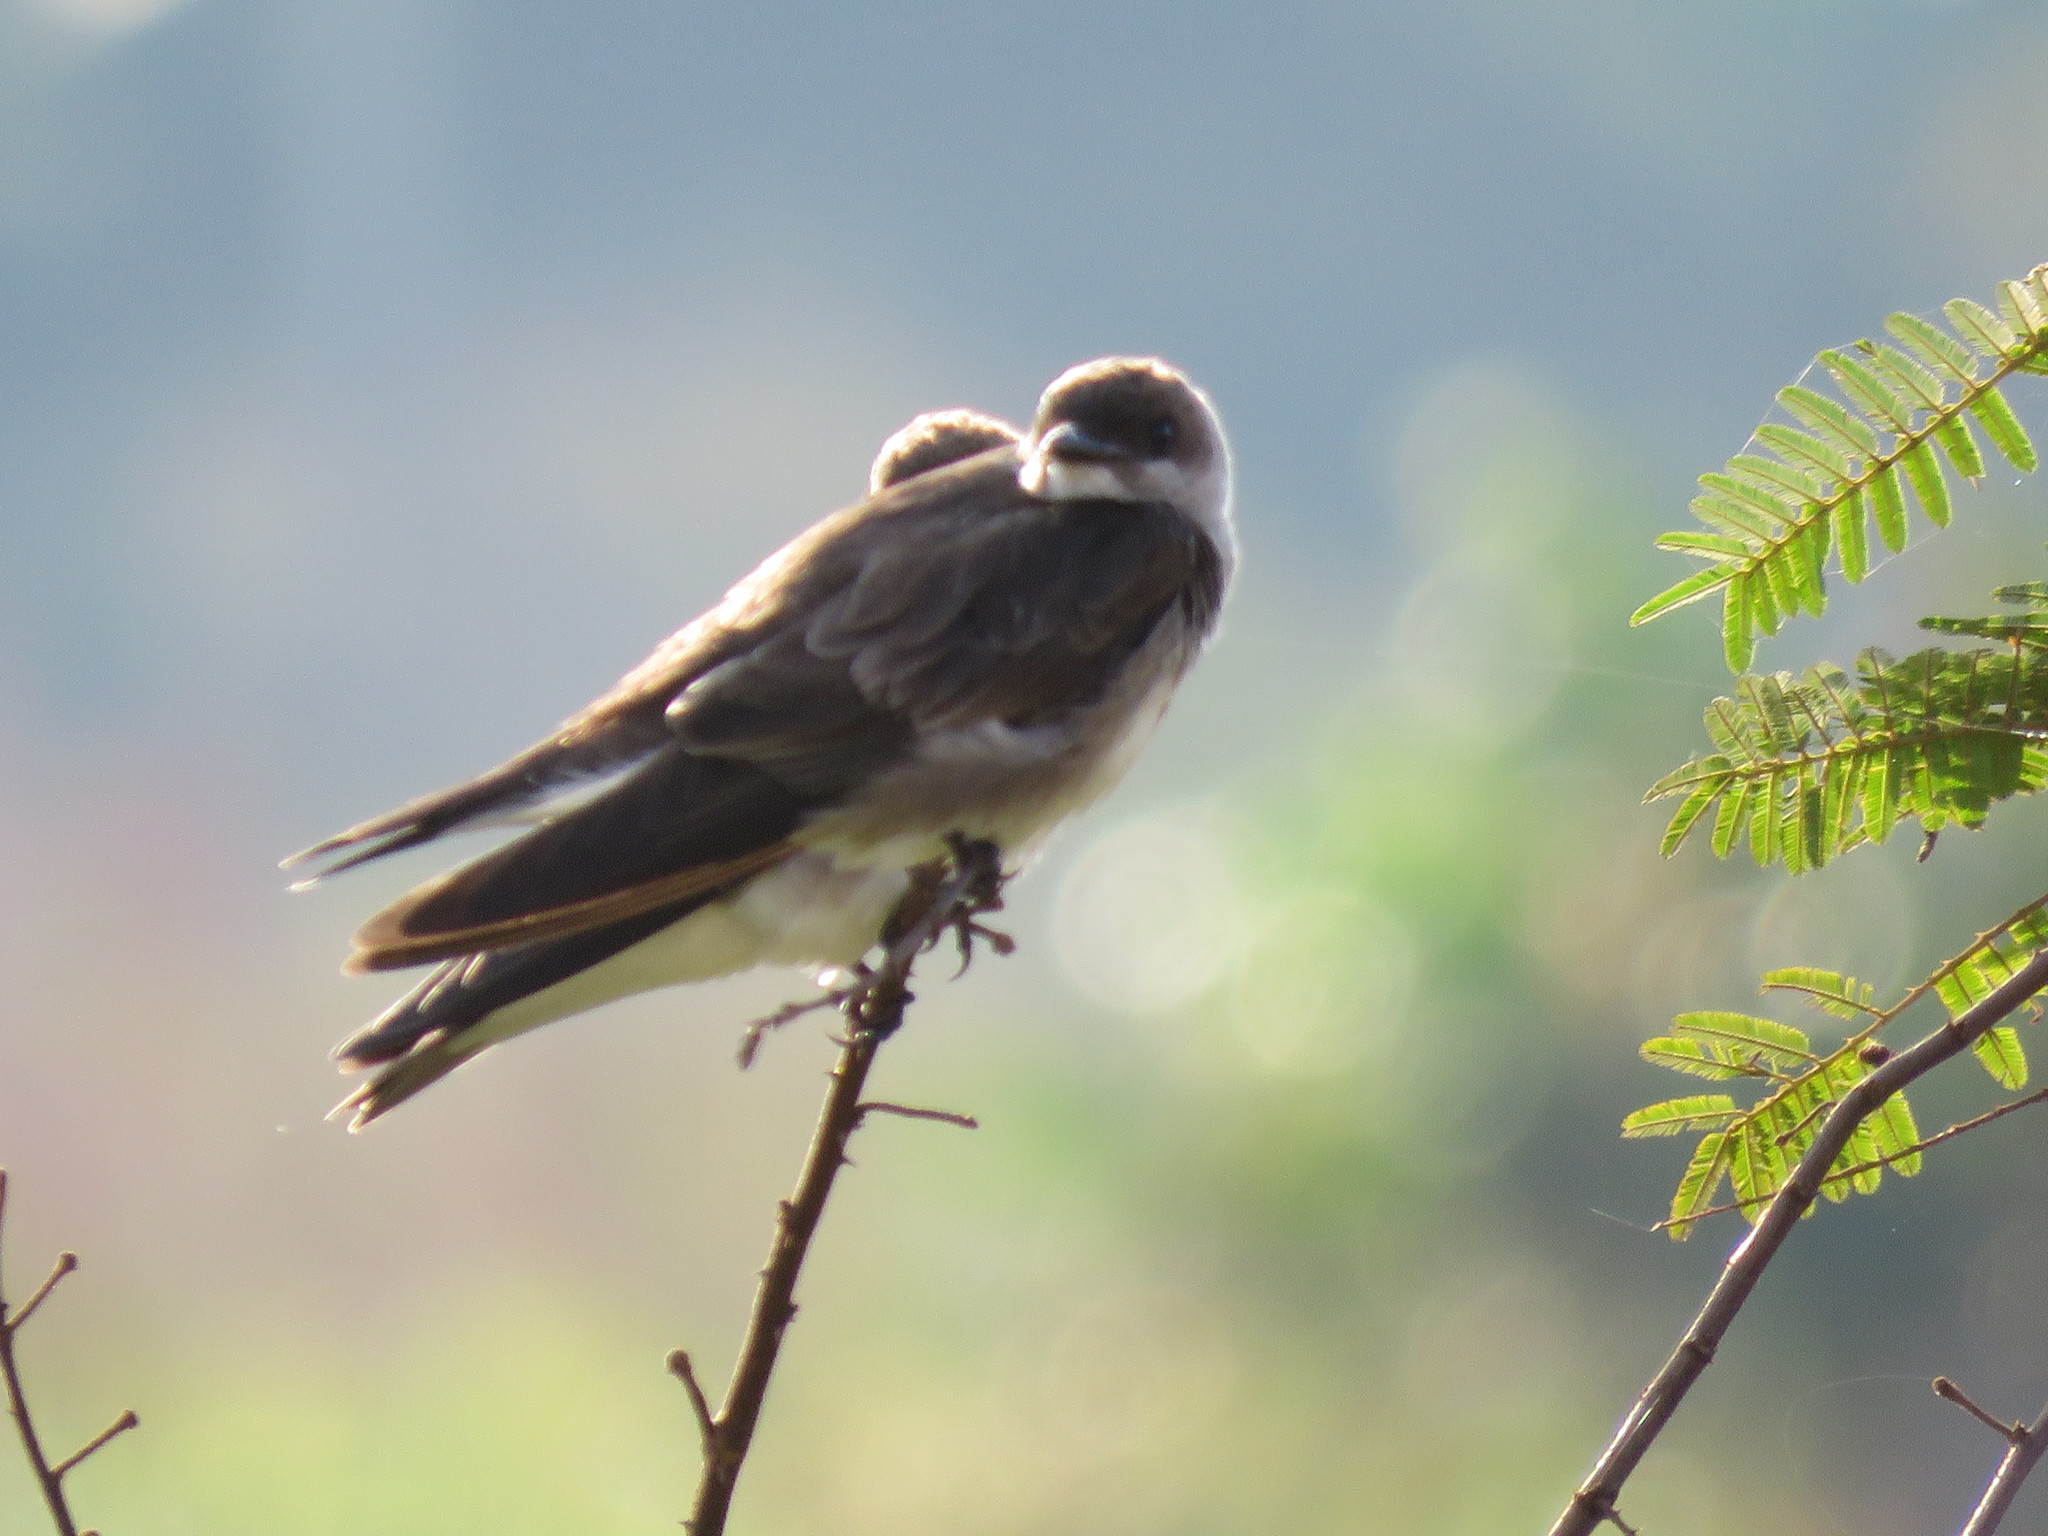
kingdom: Animalia
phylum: Chordata
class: Aves
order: Passeriformes
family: Hirundinidae
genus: Progne
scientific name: Progne tapera
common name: Brown-chested martin
